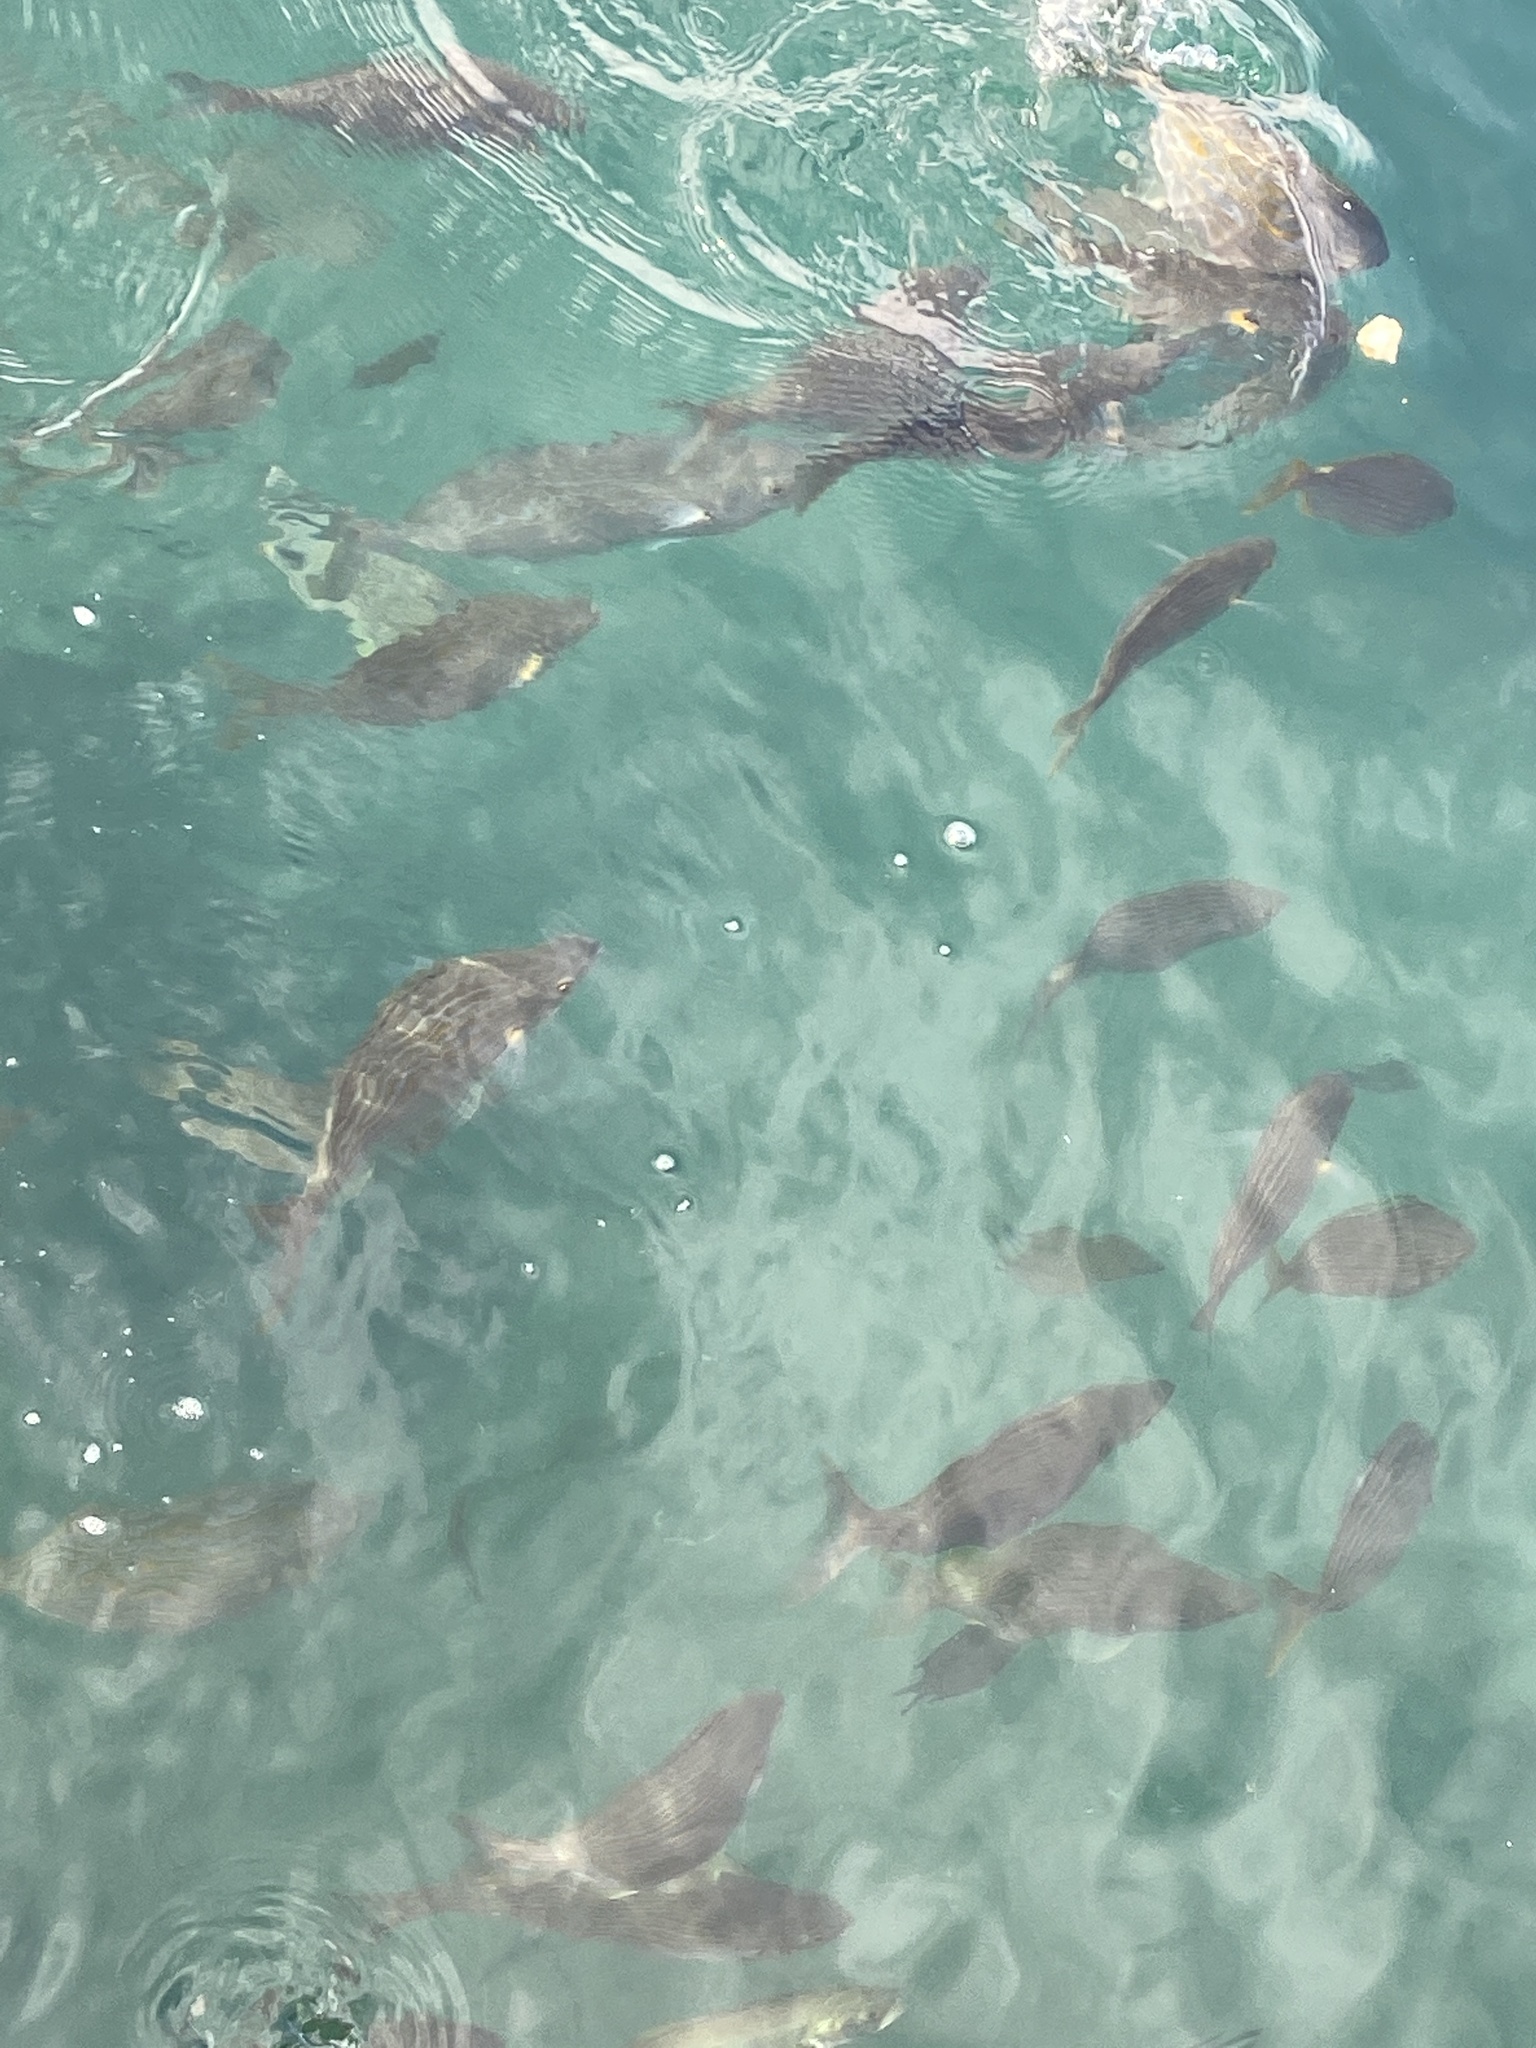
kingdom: Animalia
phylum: Chordata
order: Perciformes
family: Sparidae
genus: Sarpa
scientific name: Sarpa salpa
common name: Salema
